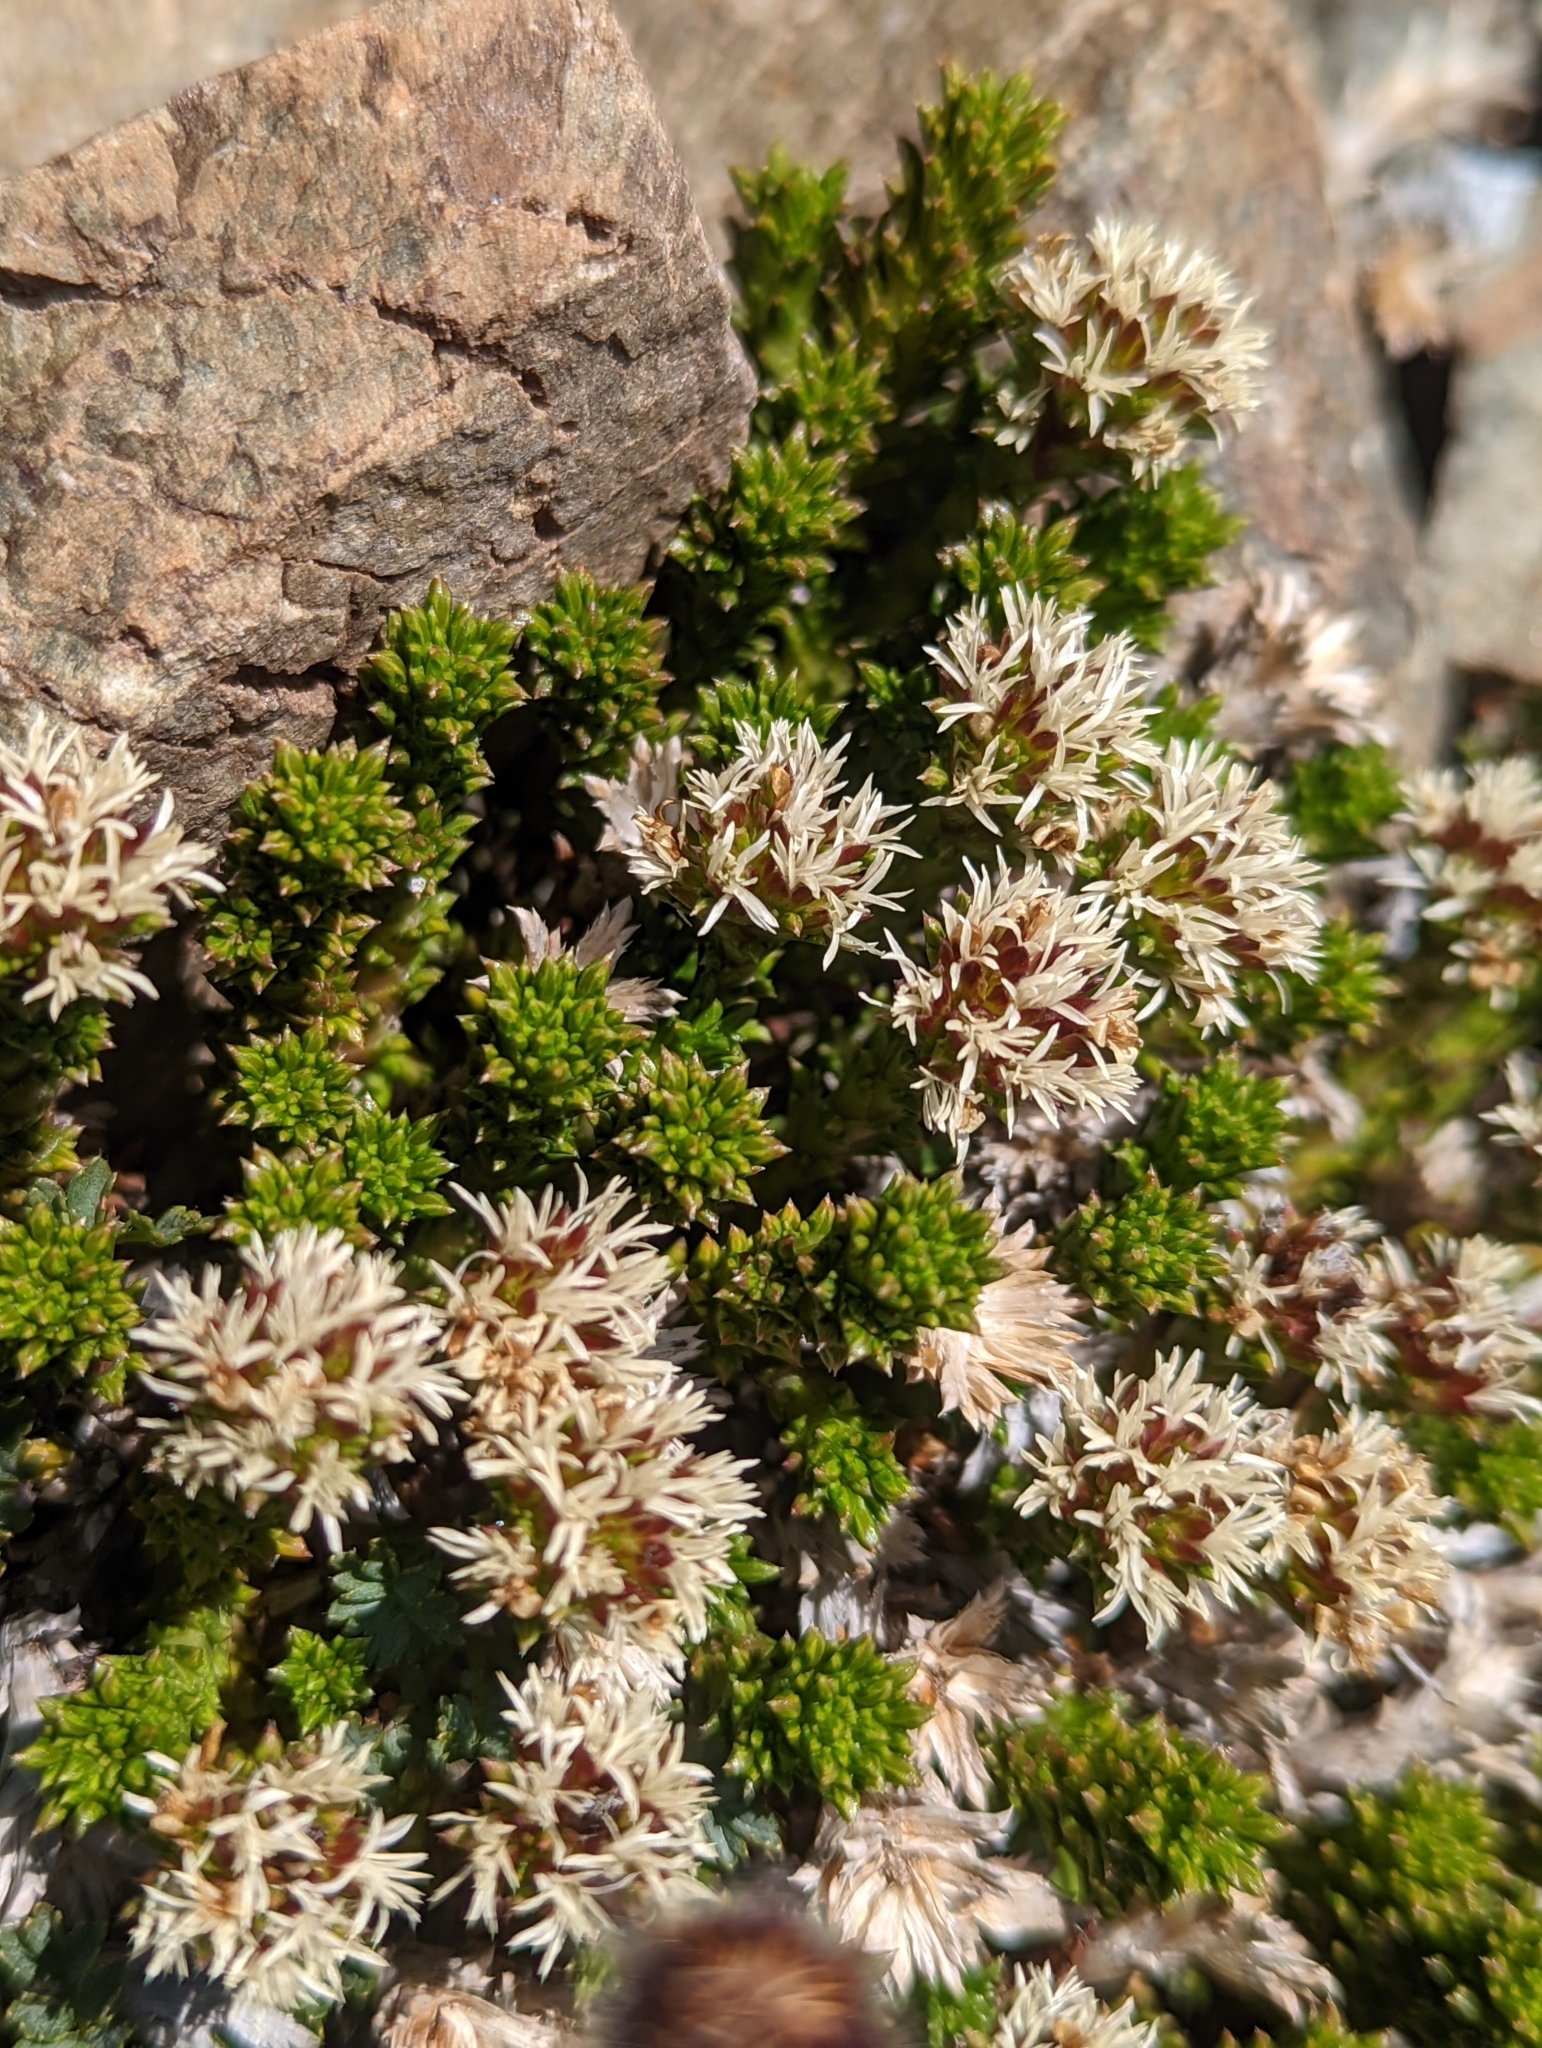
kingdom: Plantae
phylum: Tracheophyta
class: Magnoliopsida
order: Asterales
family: Asteraceae
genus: Nassauvia
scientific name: Nassauvia pygmaea
